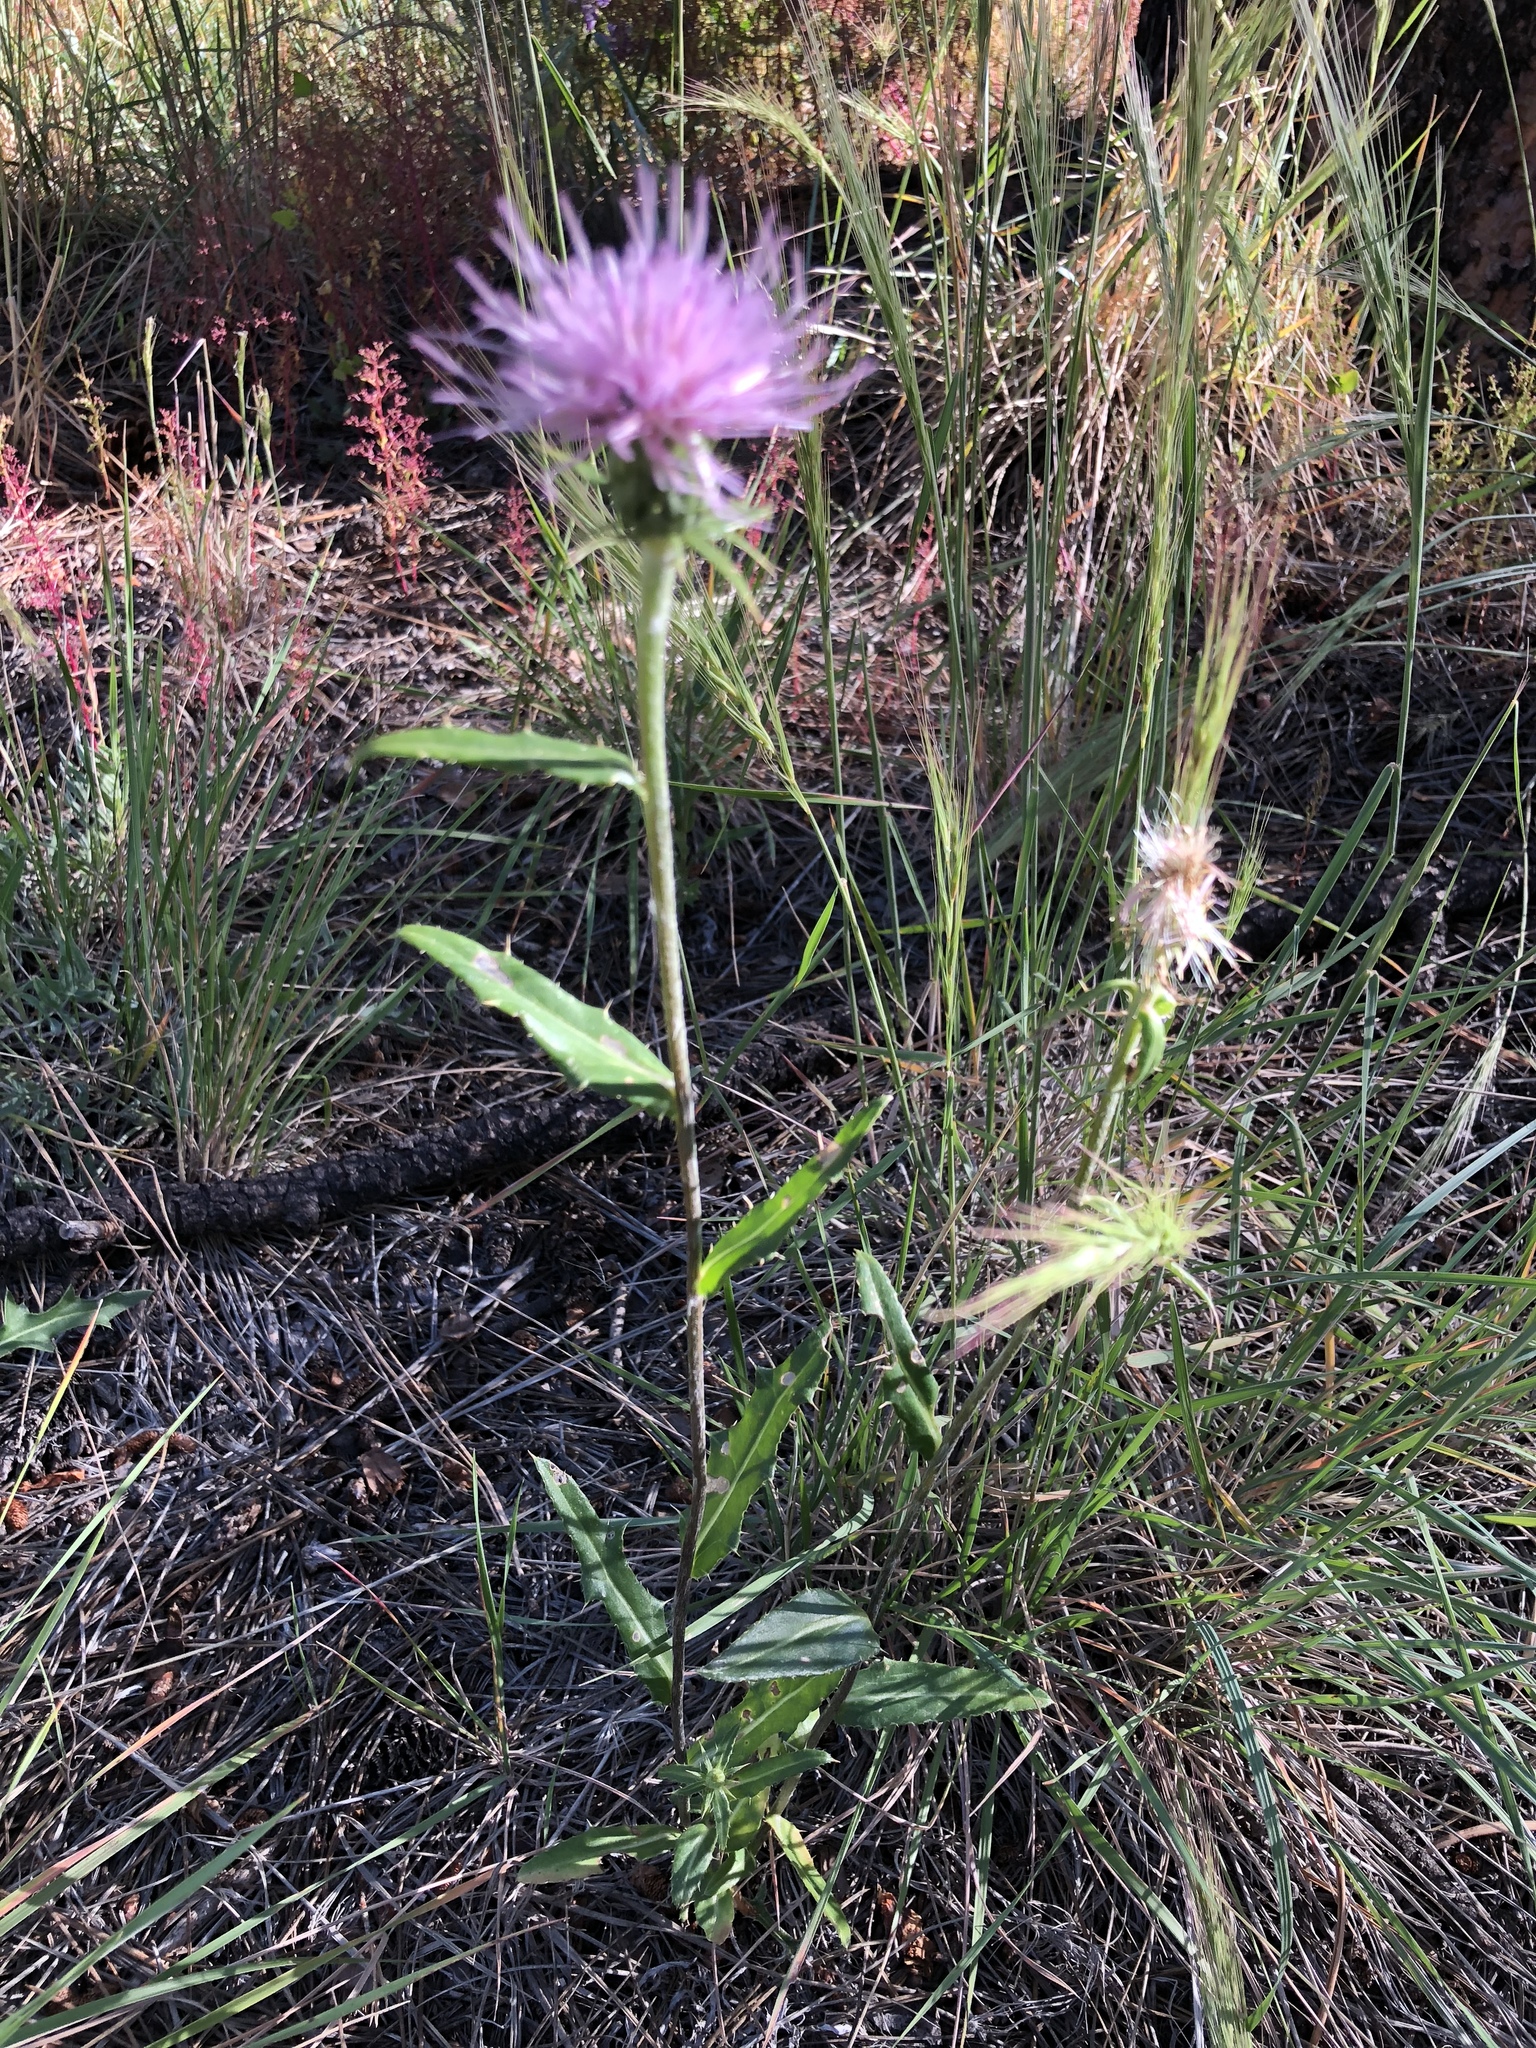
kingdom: Plantae
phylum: Tracheophyta
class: Magnoliopsida
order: Asterales
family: Asteraceae
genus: Cirsium
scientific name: Cirsium wheeleri
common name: Wheeler's thistle
